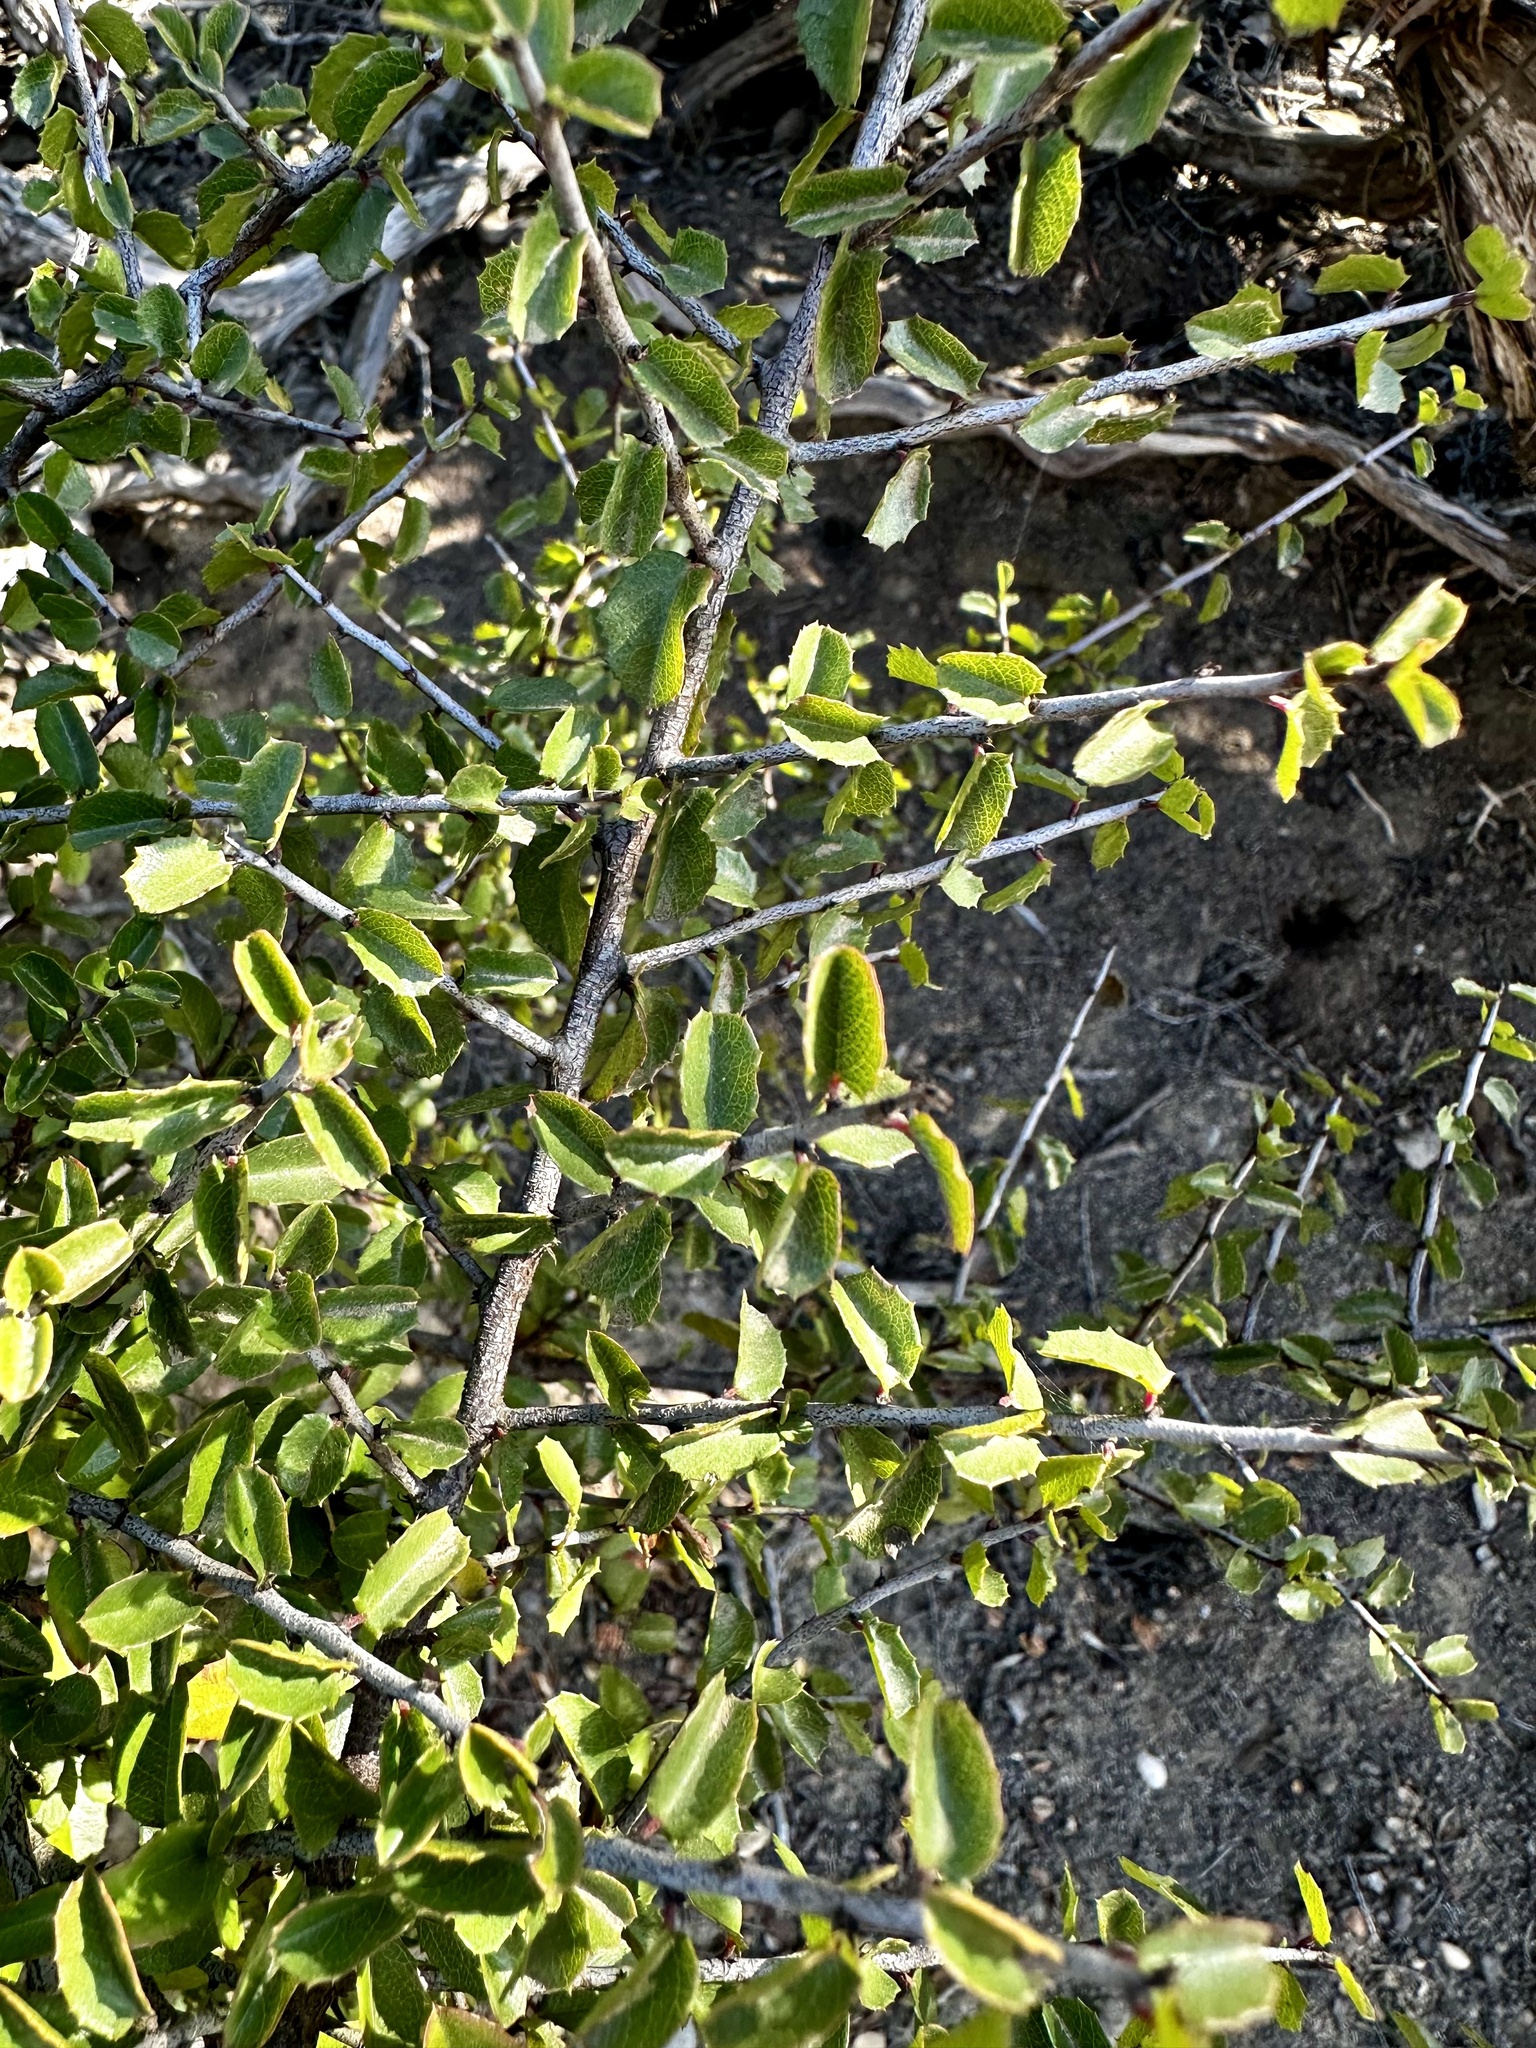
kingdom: Plantae
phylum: Tracheophyta
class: Magnoliopsida
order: Rosales
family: Rhamnaceae
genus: Endotropis
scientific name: Endotropis crocea
